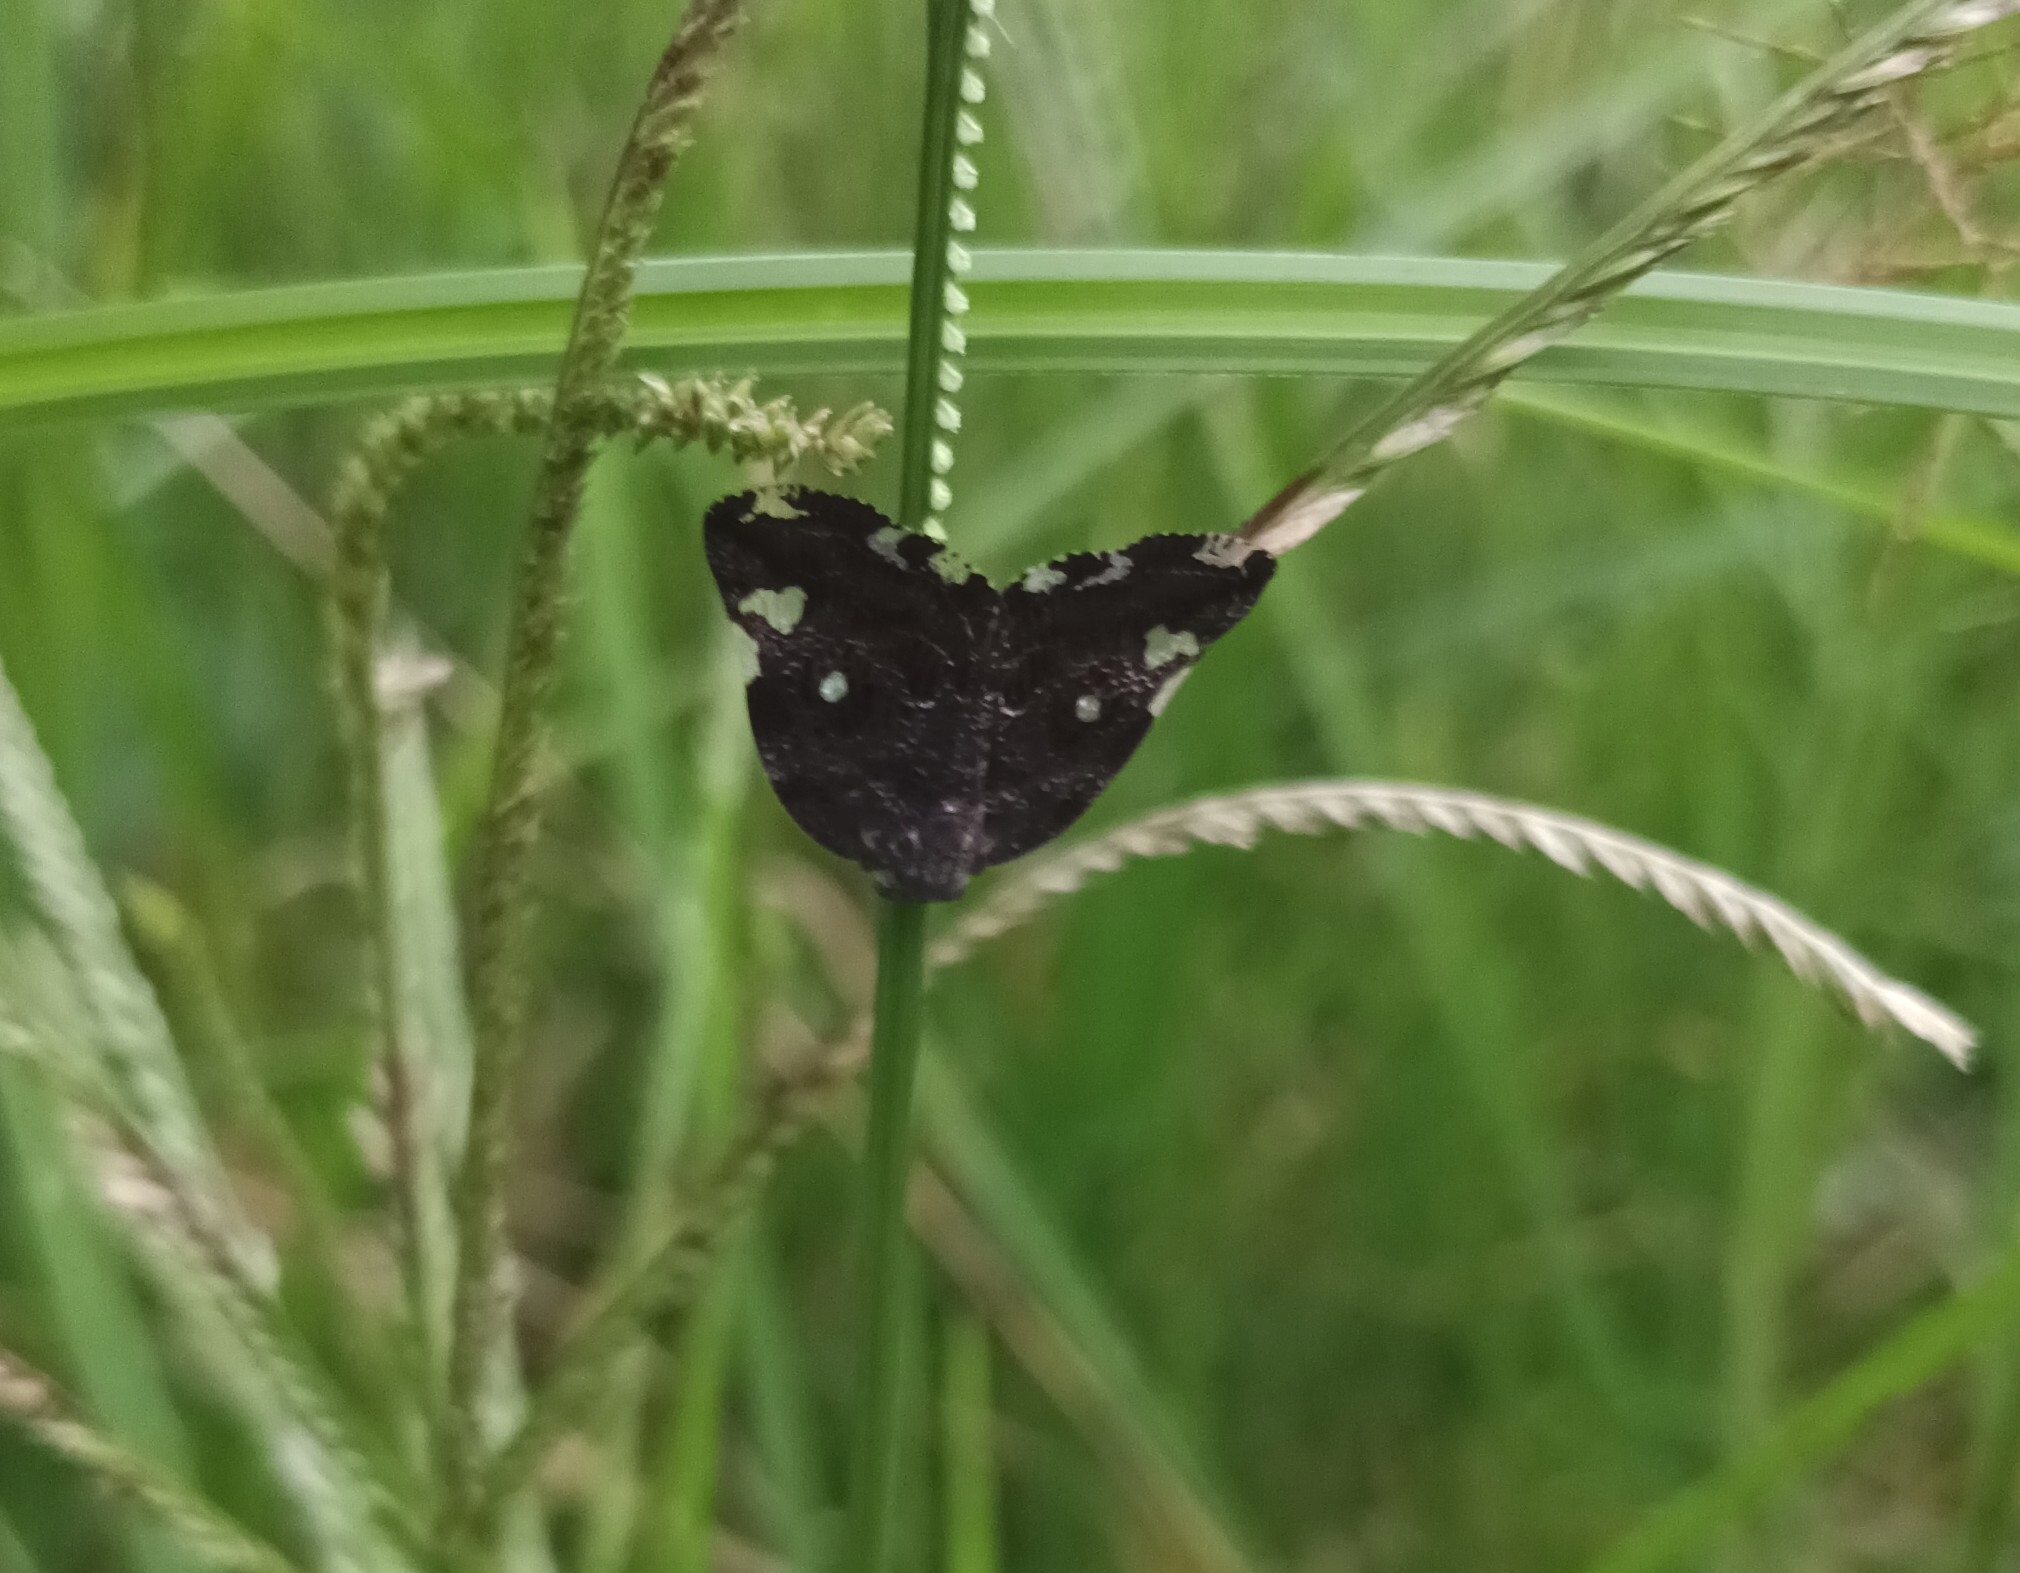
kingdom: Animalia
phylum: Arthropoda
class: Insecta
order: Hemiptera
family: Ricaniidae
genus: Ricania
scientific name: Ricania speculum
